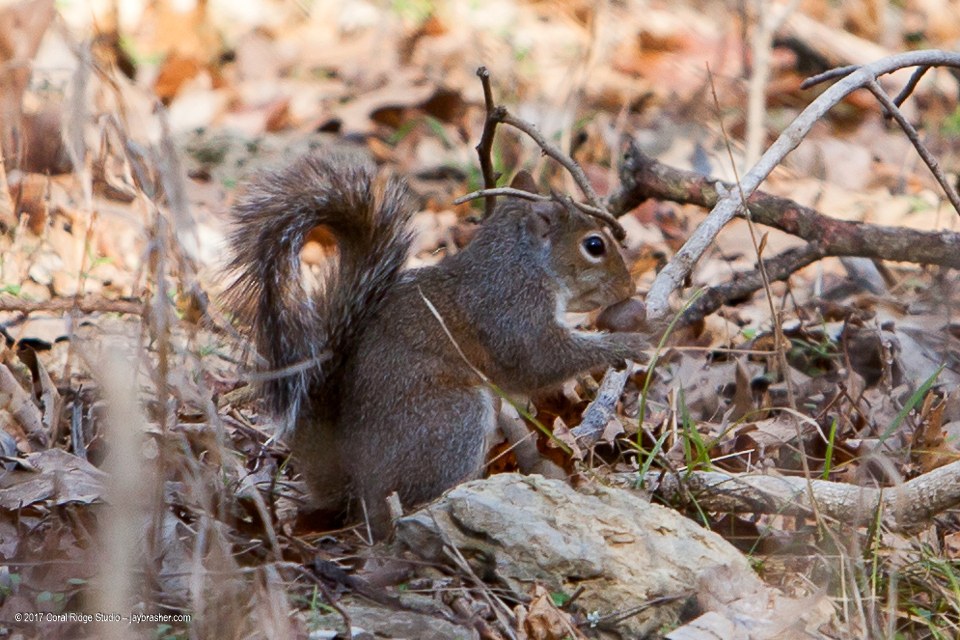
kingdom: Animalia
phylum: Chordata
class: Mammalia
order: Rodentia
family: Sciuridae
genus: Sciurus
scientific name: Sciurus carolinensis
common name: Eastern gray squirrel
